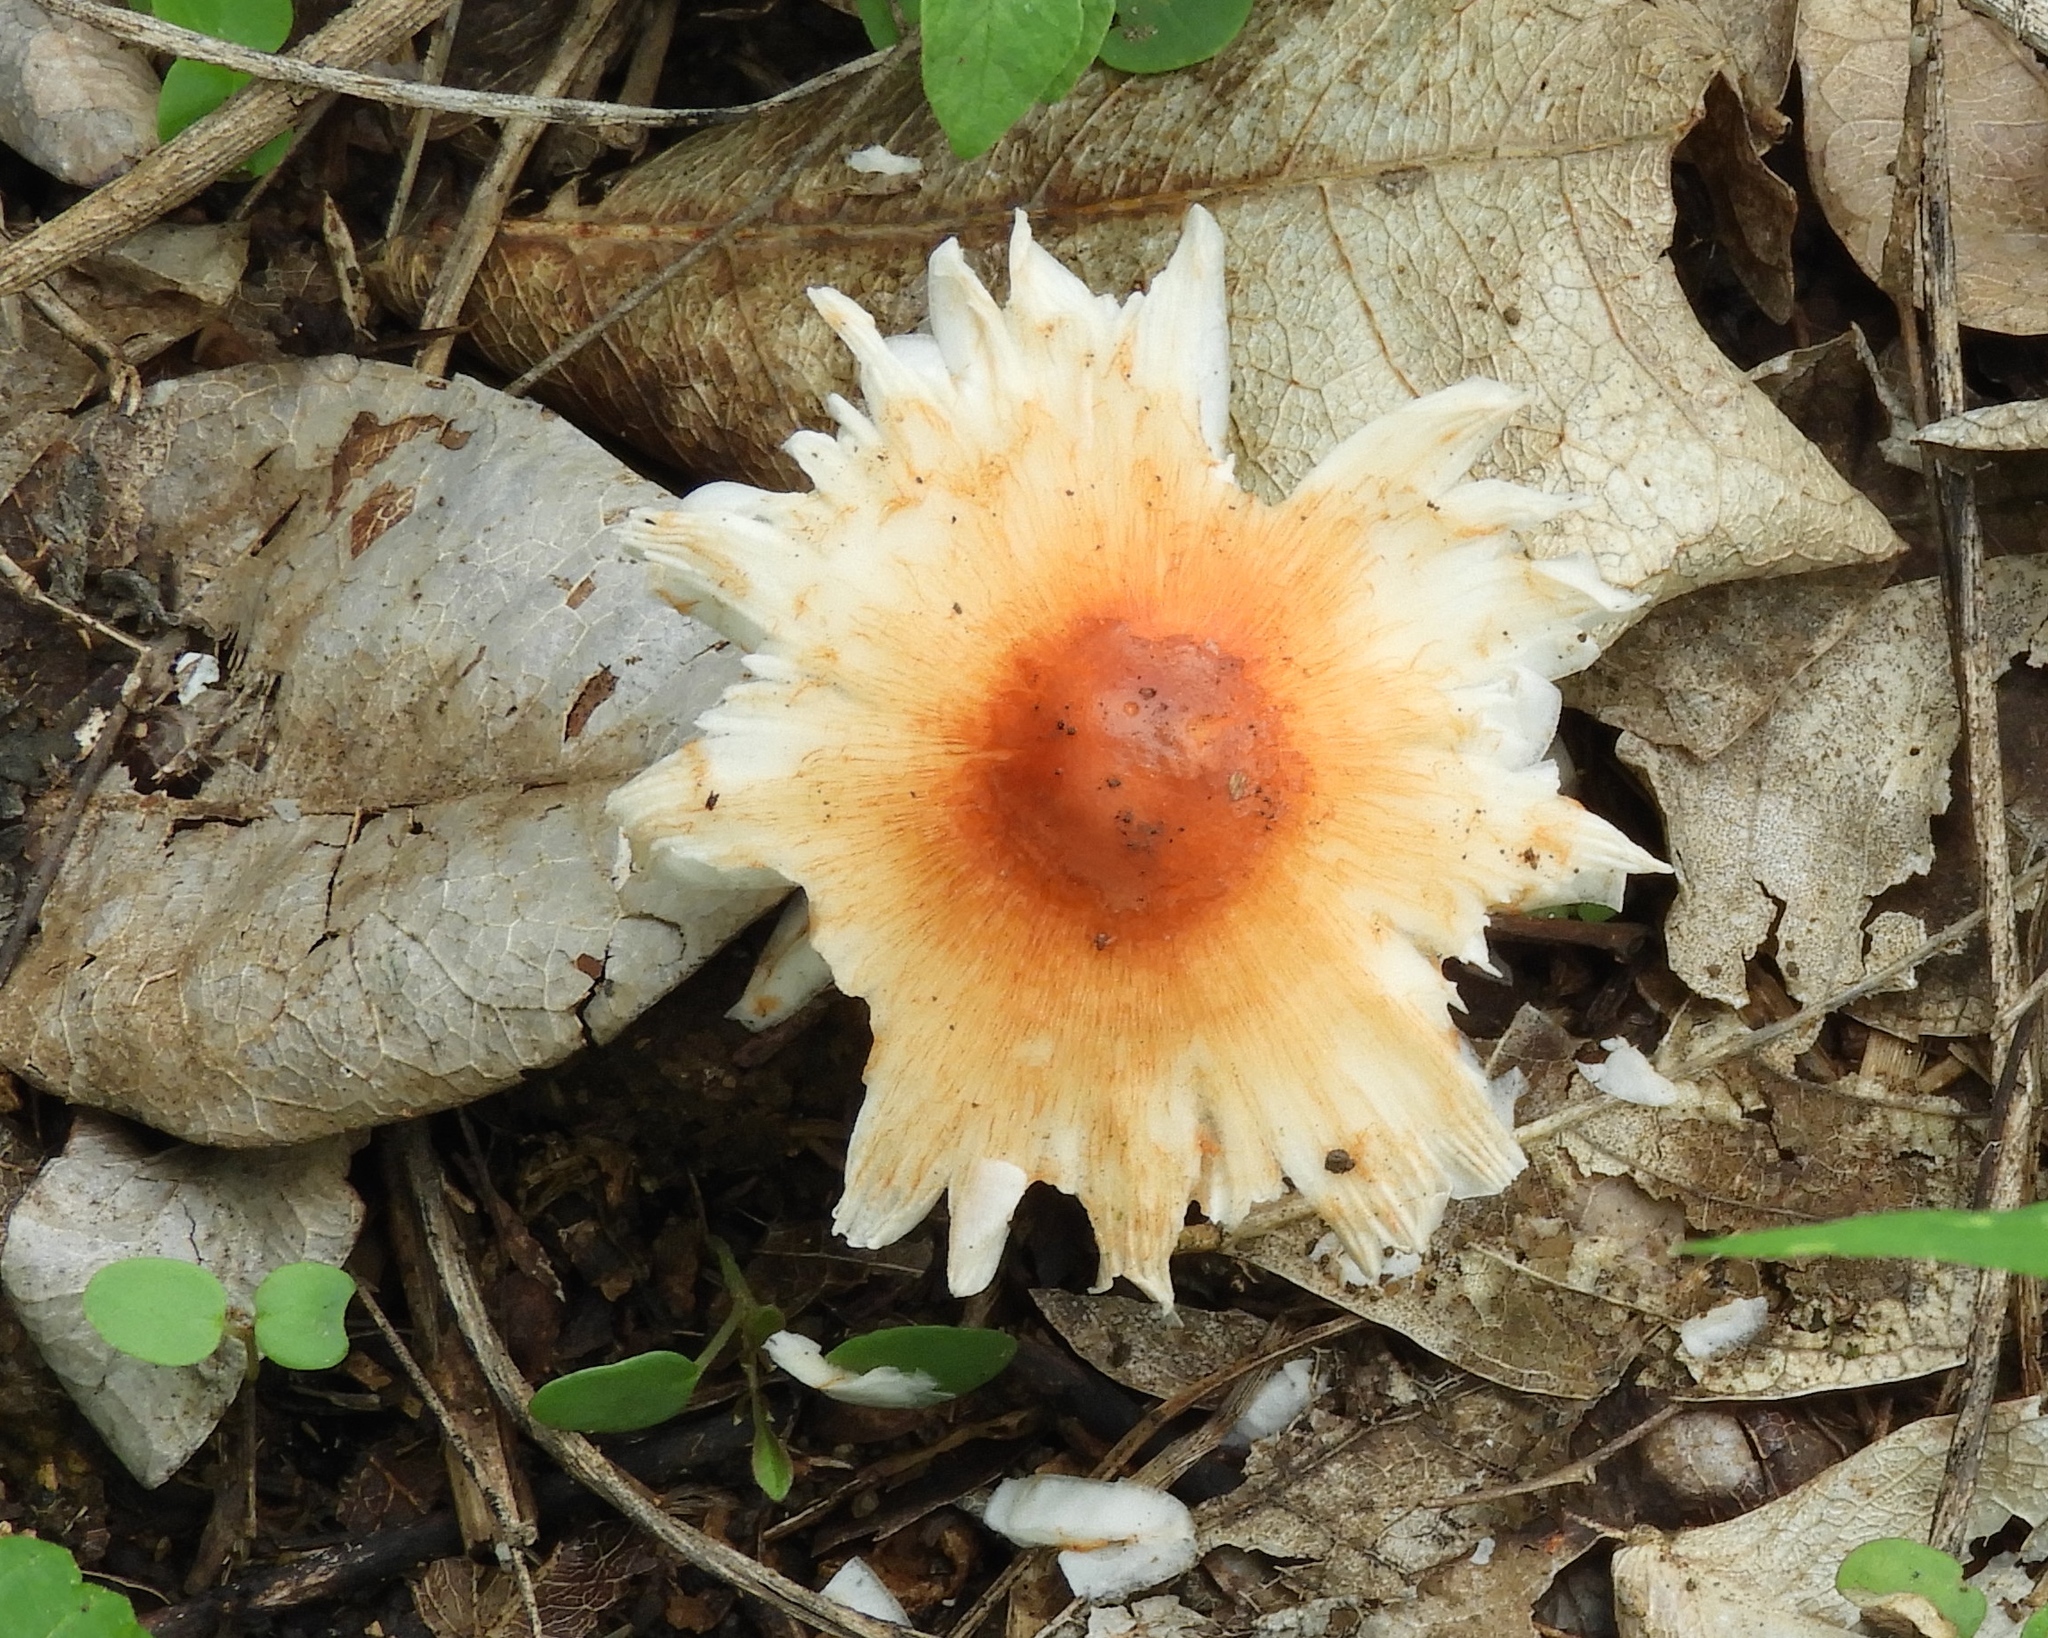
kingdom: Fungi
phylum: Basidiomycota
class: Agaricomycetes
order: Agaricales
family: Agaricaceae
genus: Leucoagaricus
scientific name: Leucoagaricus
